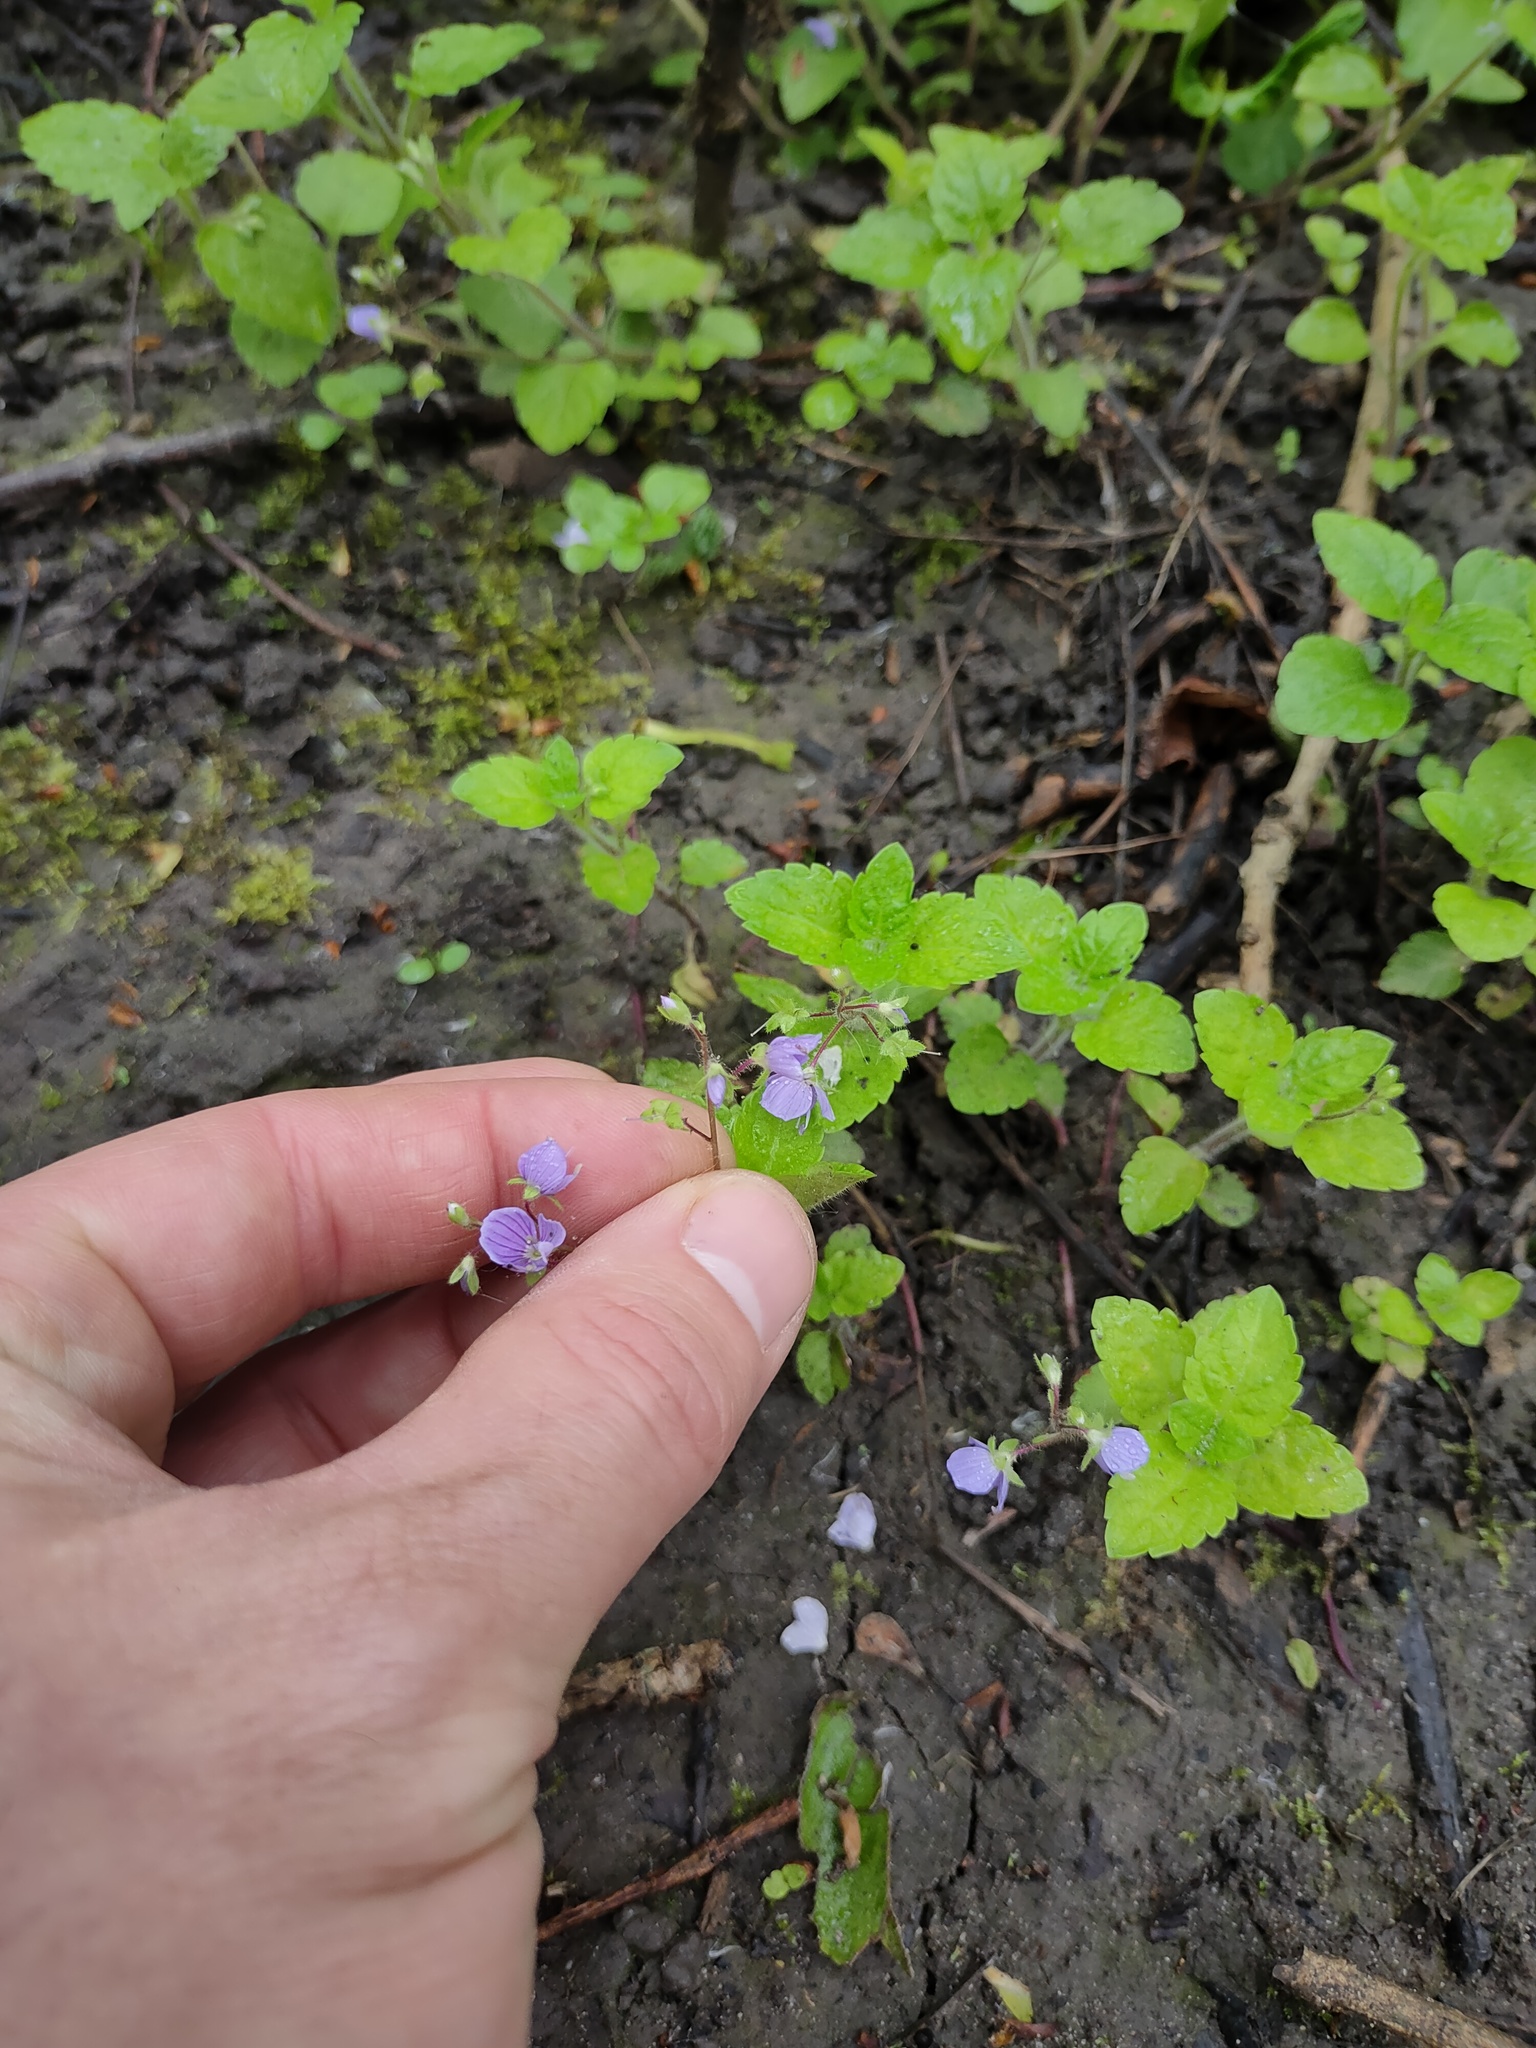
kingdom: Plantae
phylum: Tracheophyta
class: Magnoliopsida
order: Lamiales
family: Plantaginaceae
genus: Veronica
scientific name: Veronica montana
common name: Wood speedwell
